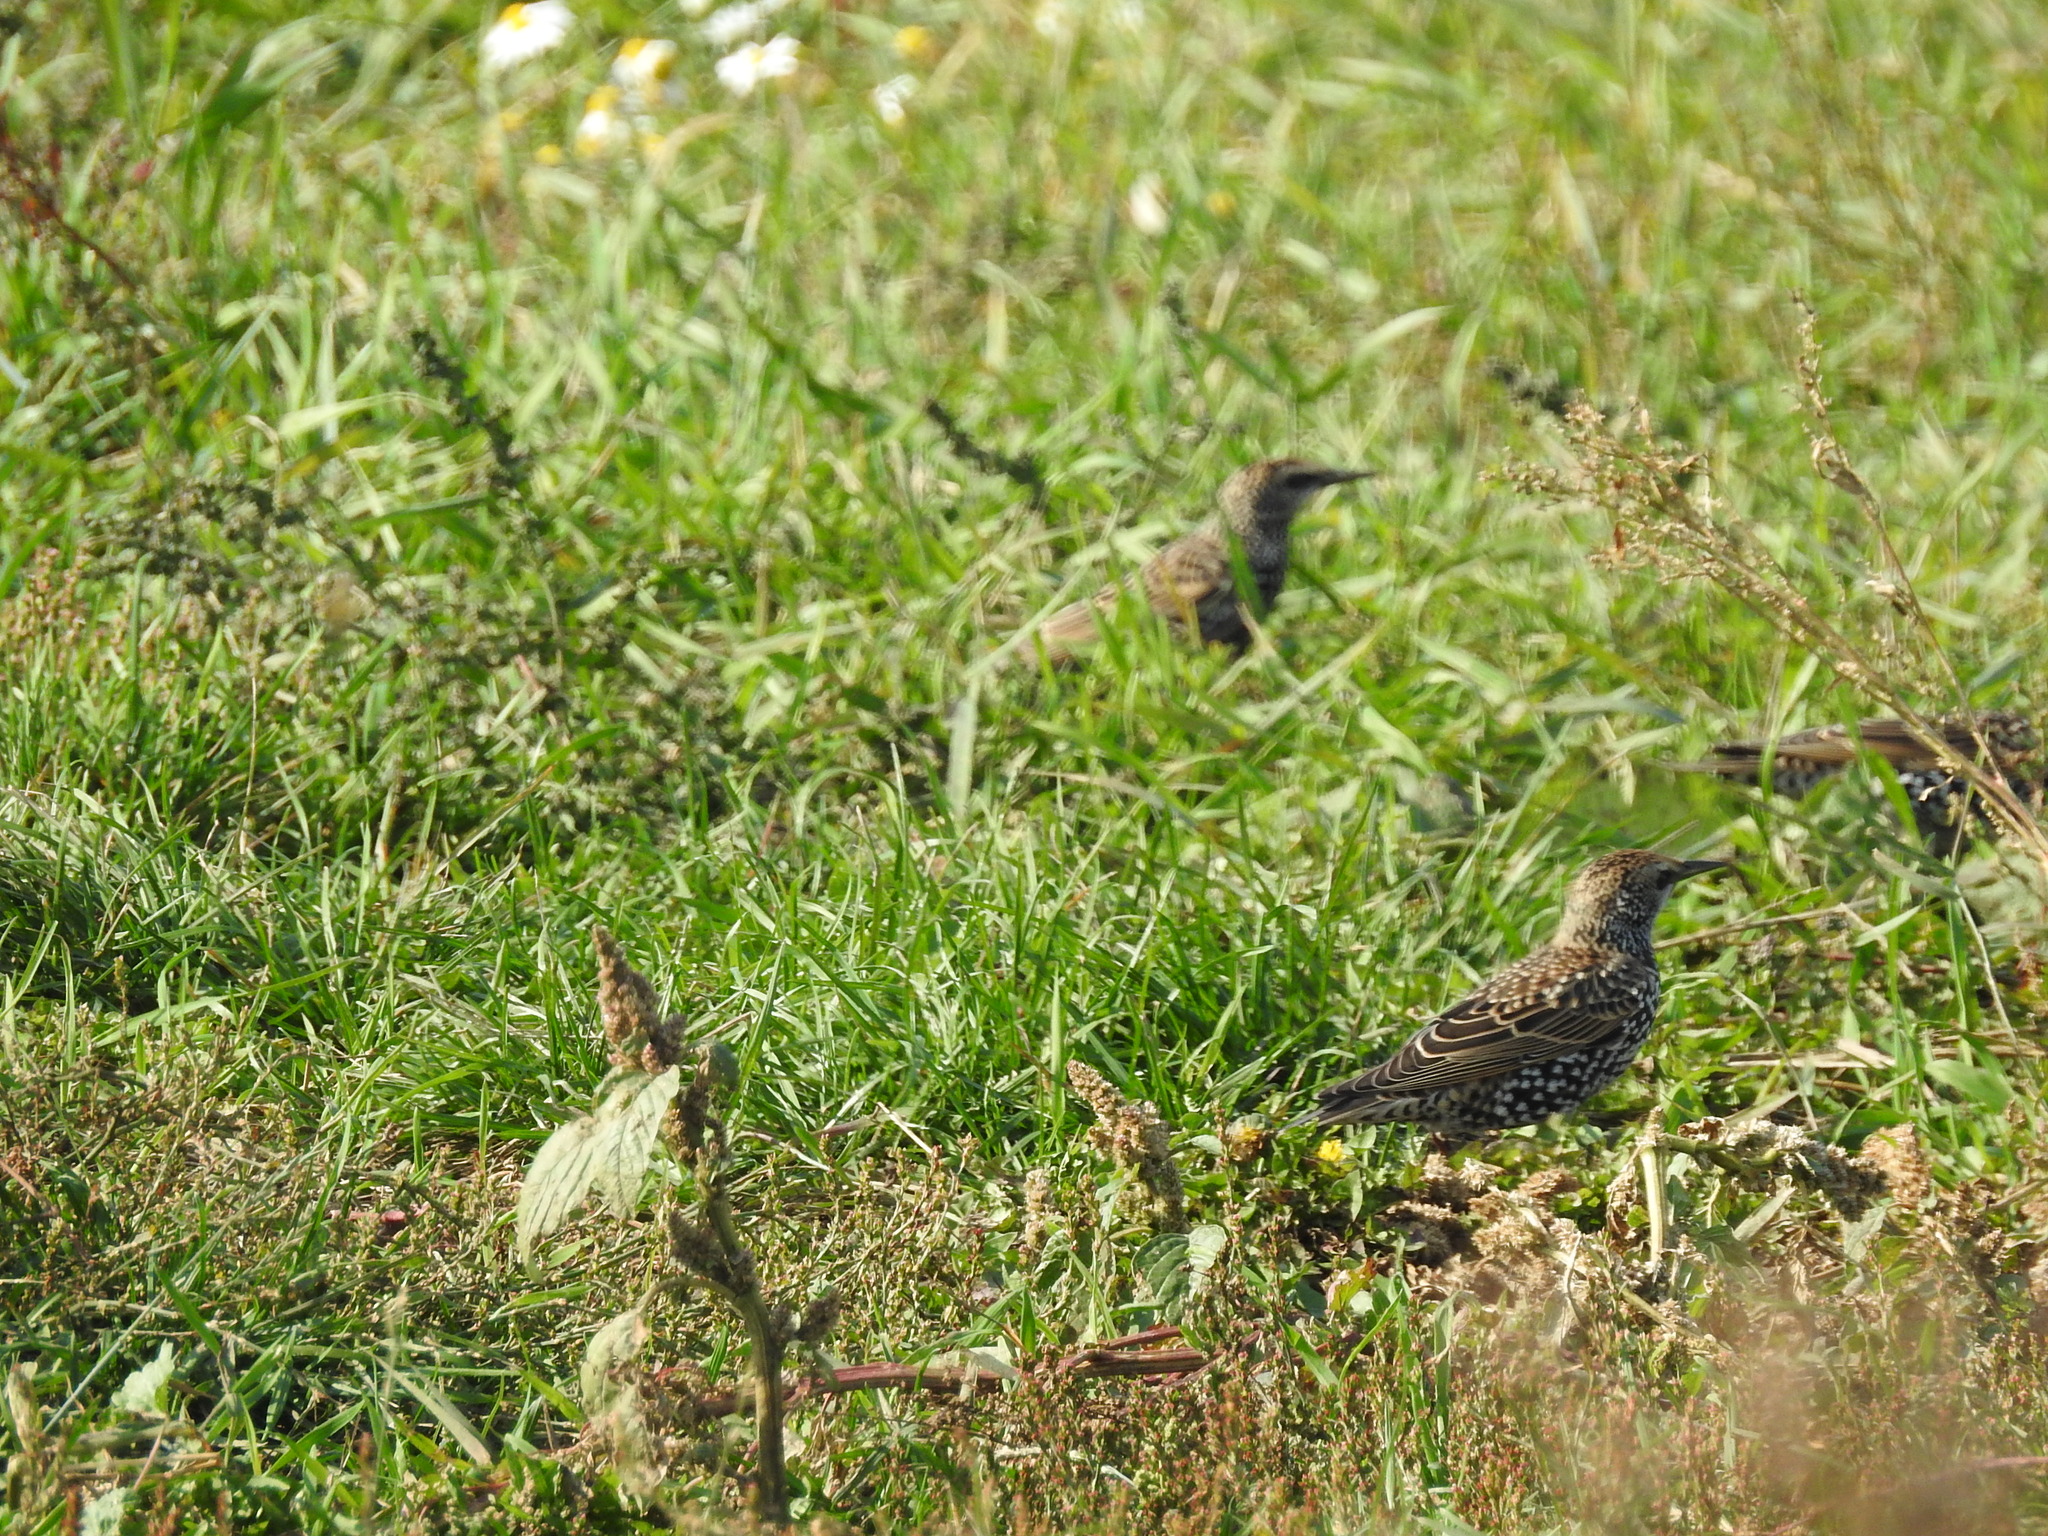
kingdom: Animalia
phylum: Chordata
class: Aves
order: Passeriformes
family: Sturnidae
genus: Sturnus
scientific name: Sturnus vulgaris
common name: Common starling
